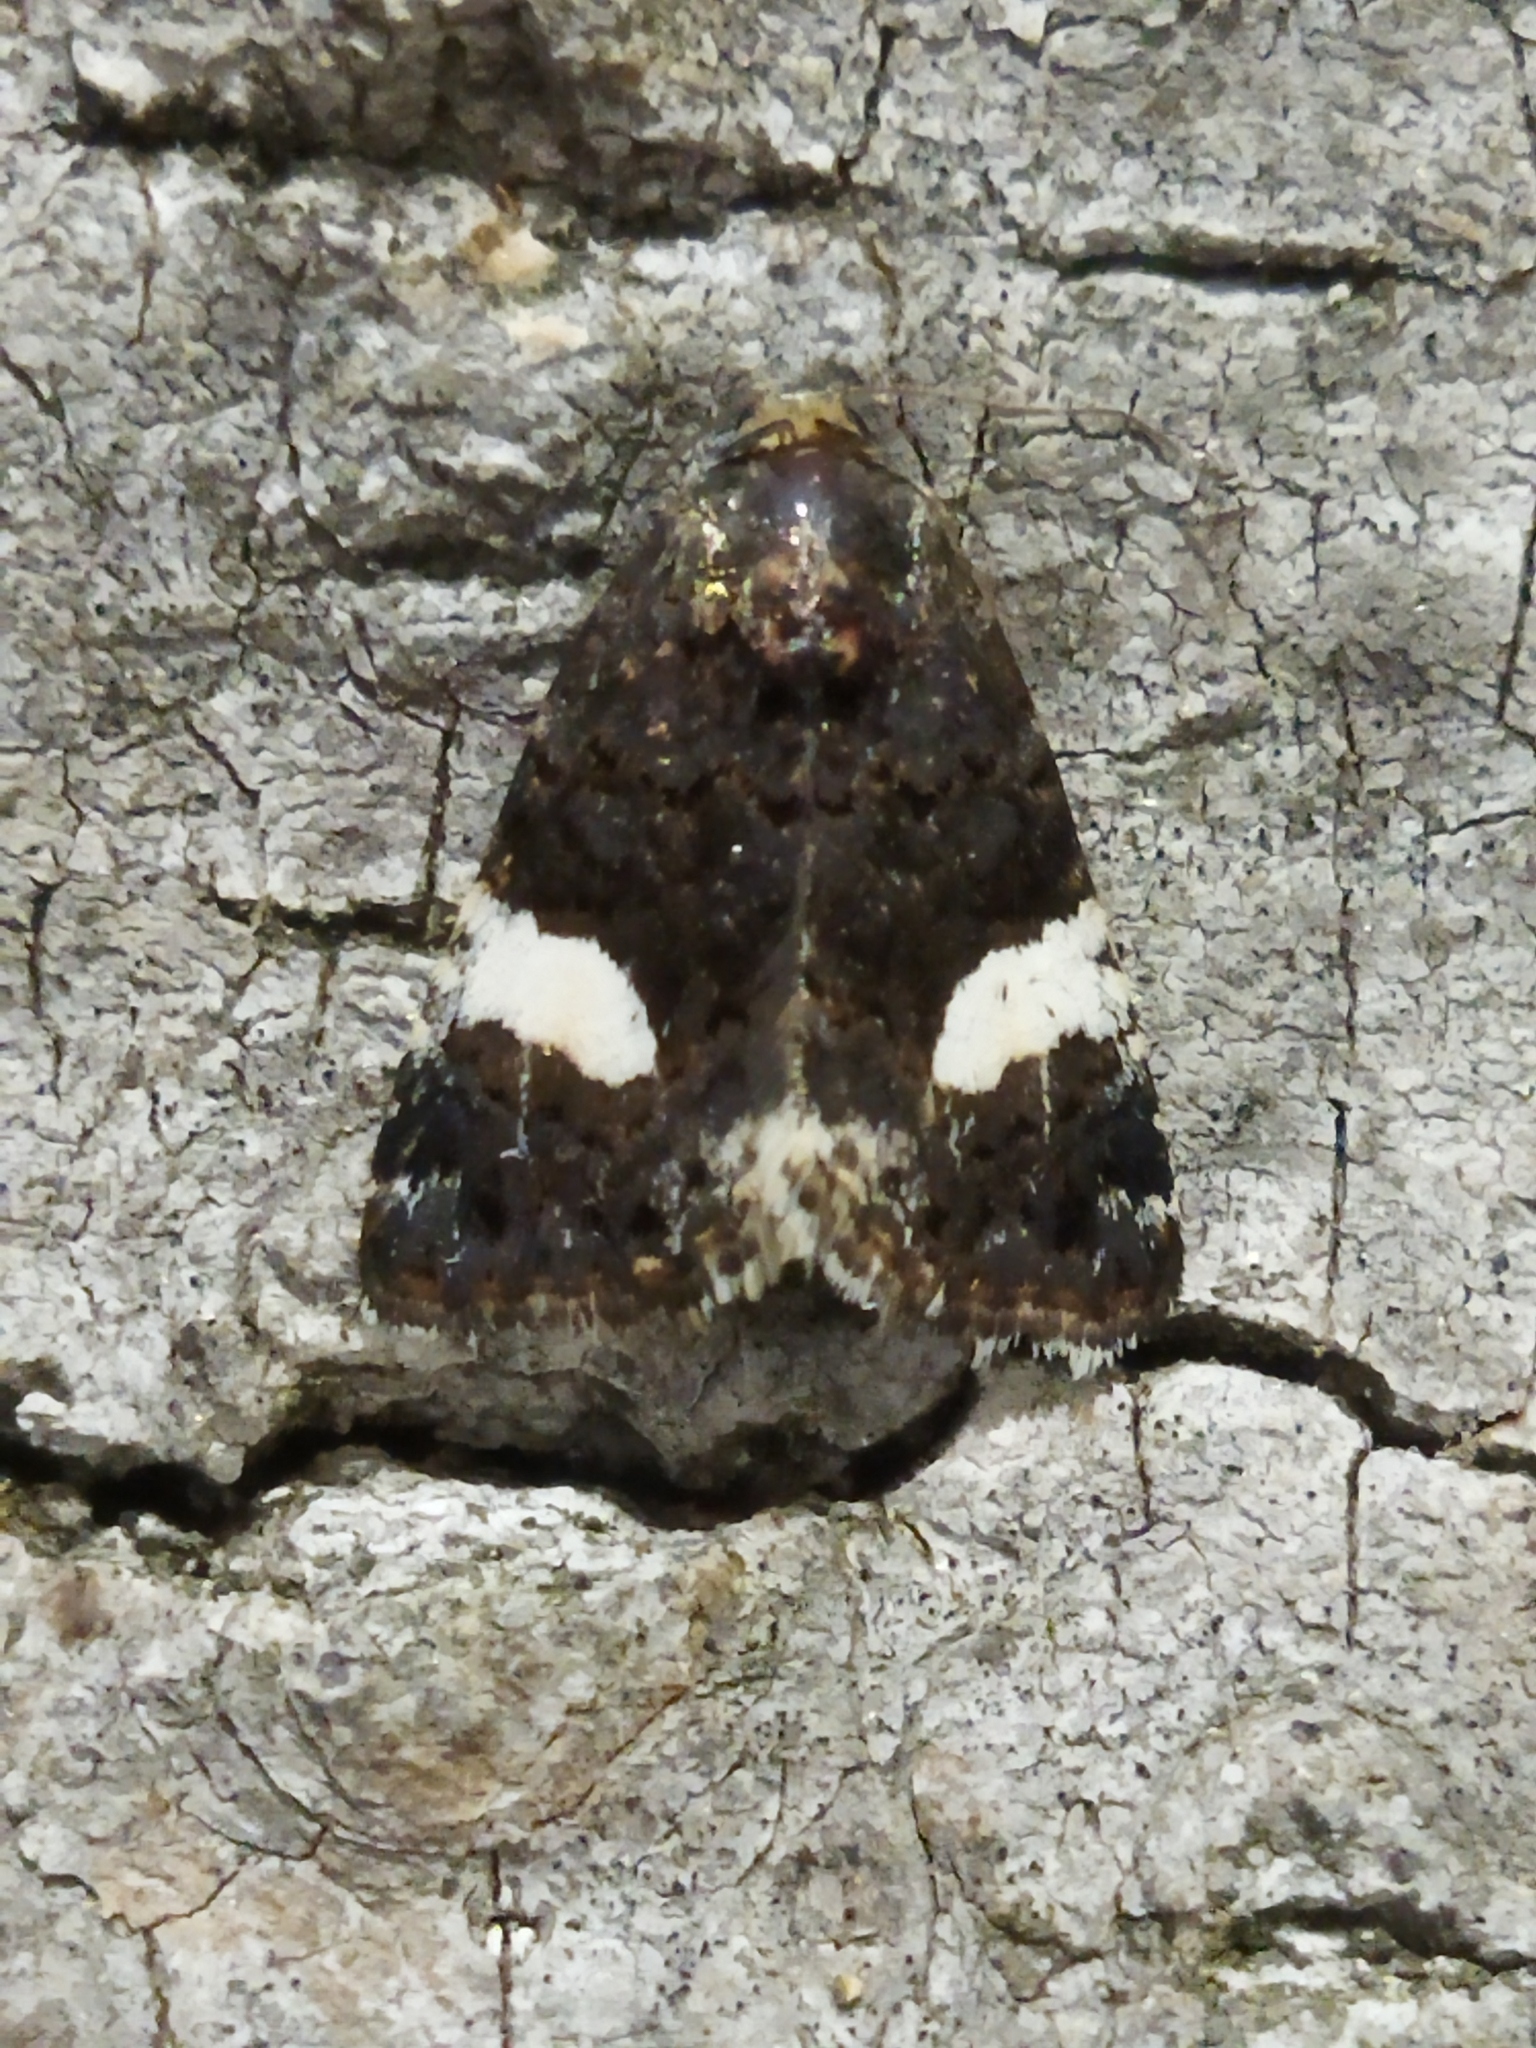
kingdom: Animalia
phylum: Arthropoda
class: Insecta
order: Lepidoptera
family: Erebidae
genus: Tyta
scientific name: Tyta luctuosa
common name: Four-spotted
